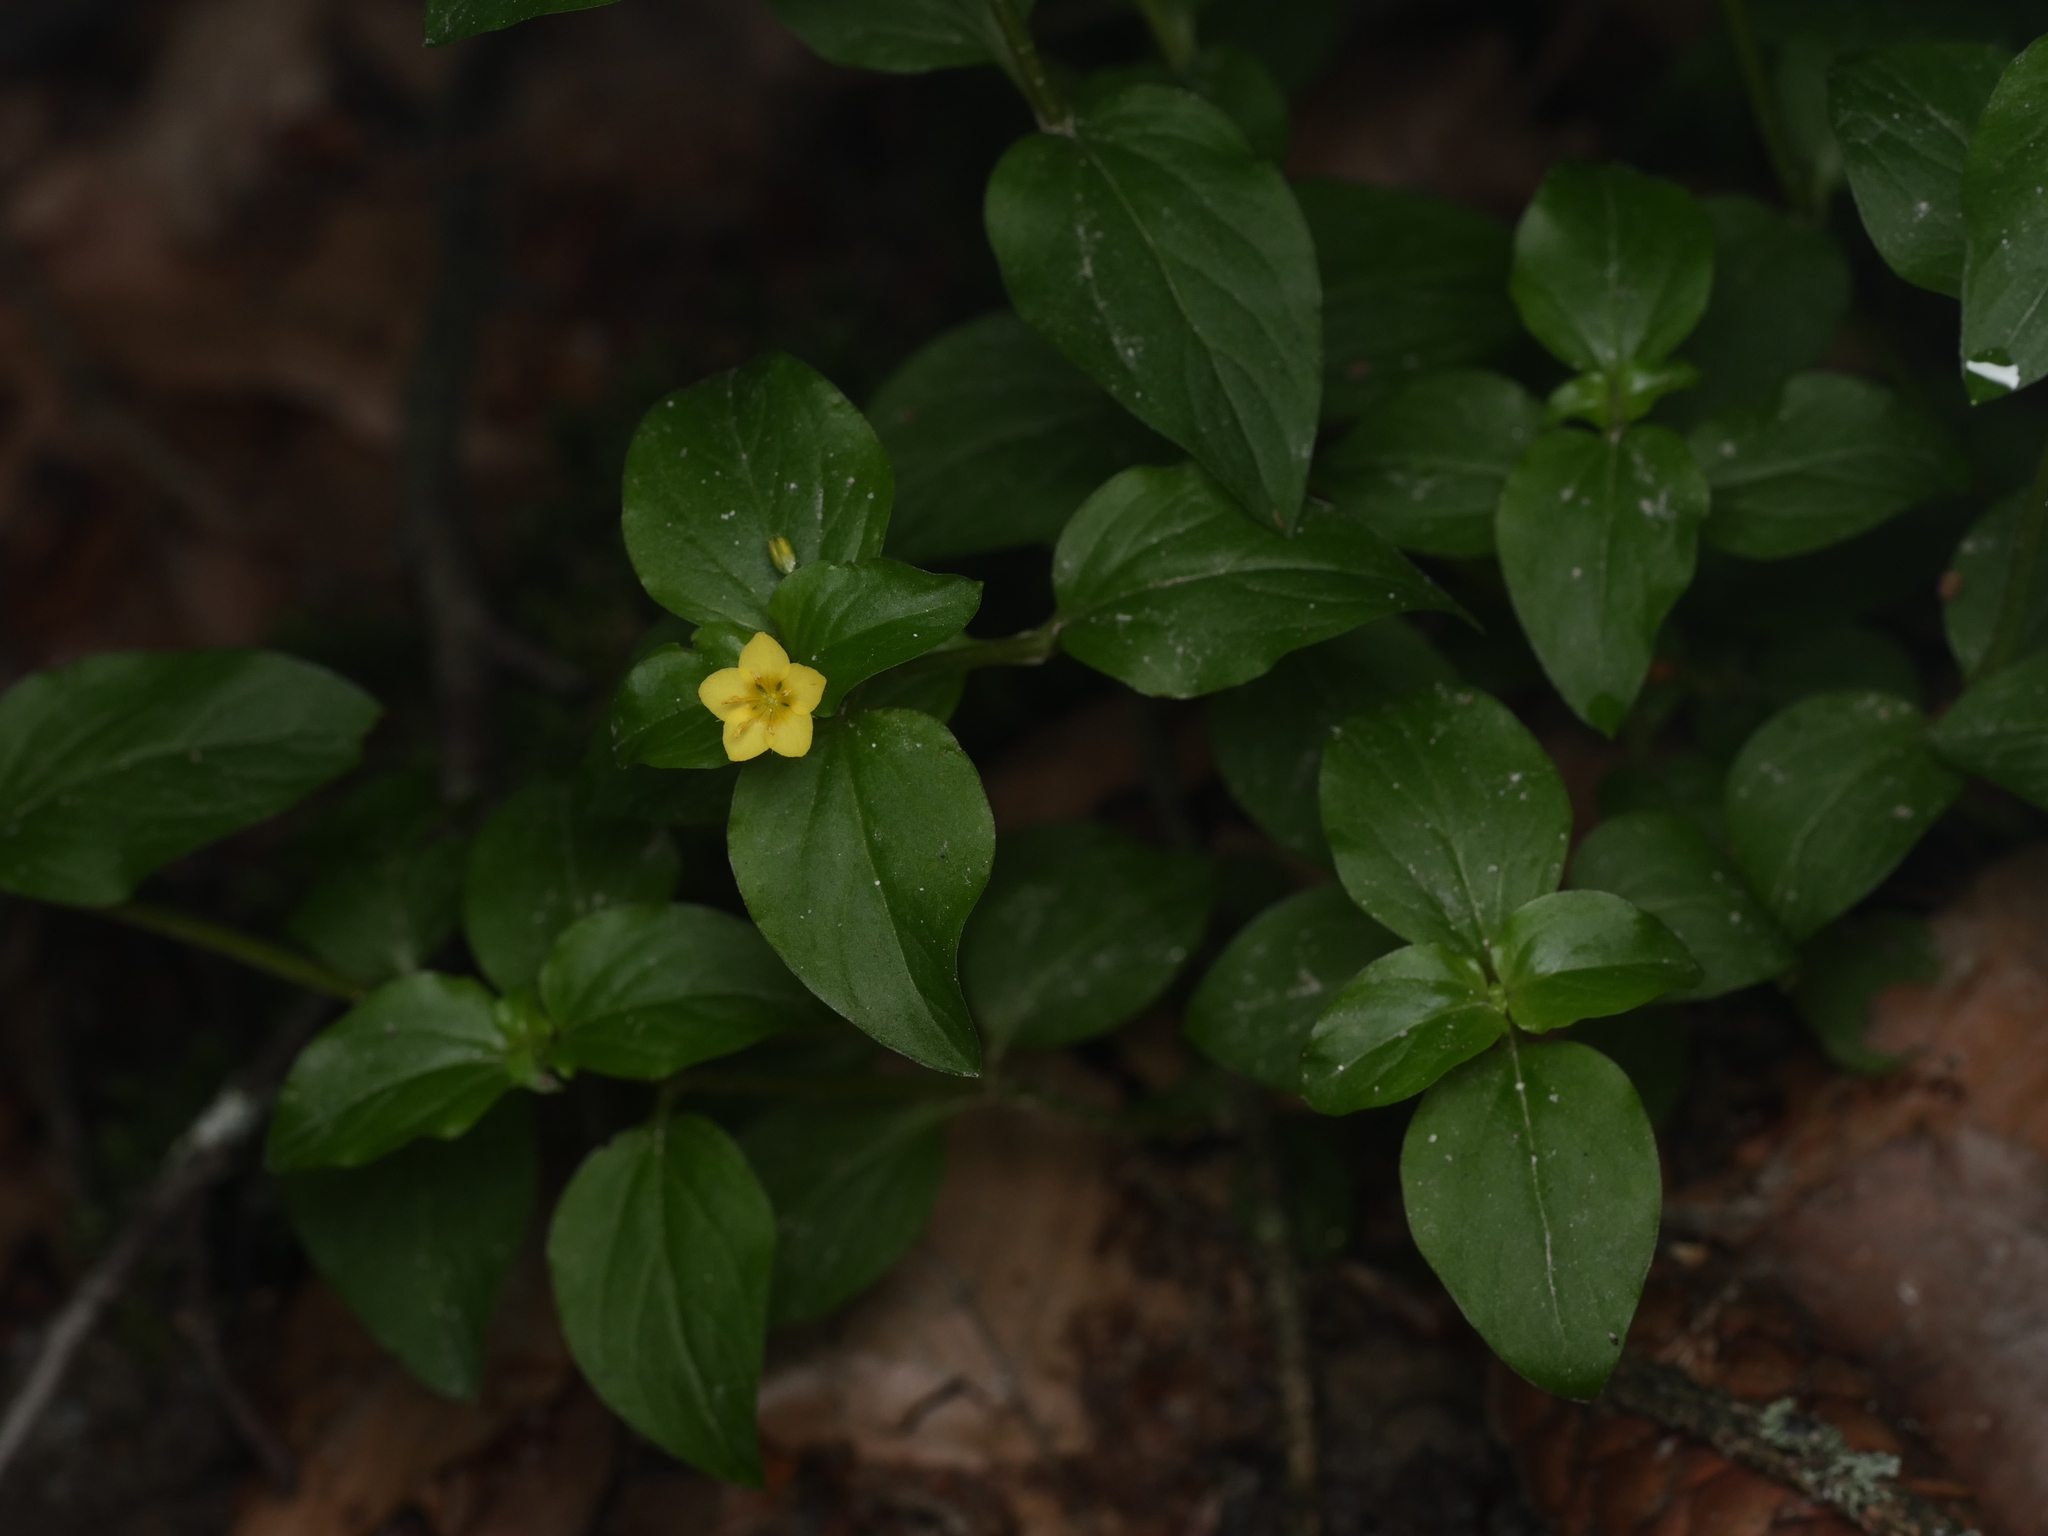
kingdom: Plantae
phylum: Tracheophyta
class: Magnoliopsida
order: Ericales
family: Primulaceae
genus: Lysimachia
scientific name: Lysimachia nemorum
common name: Yellow pimpernel
